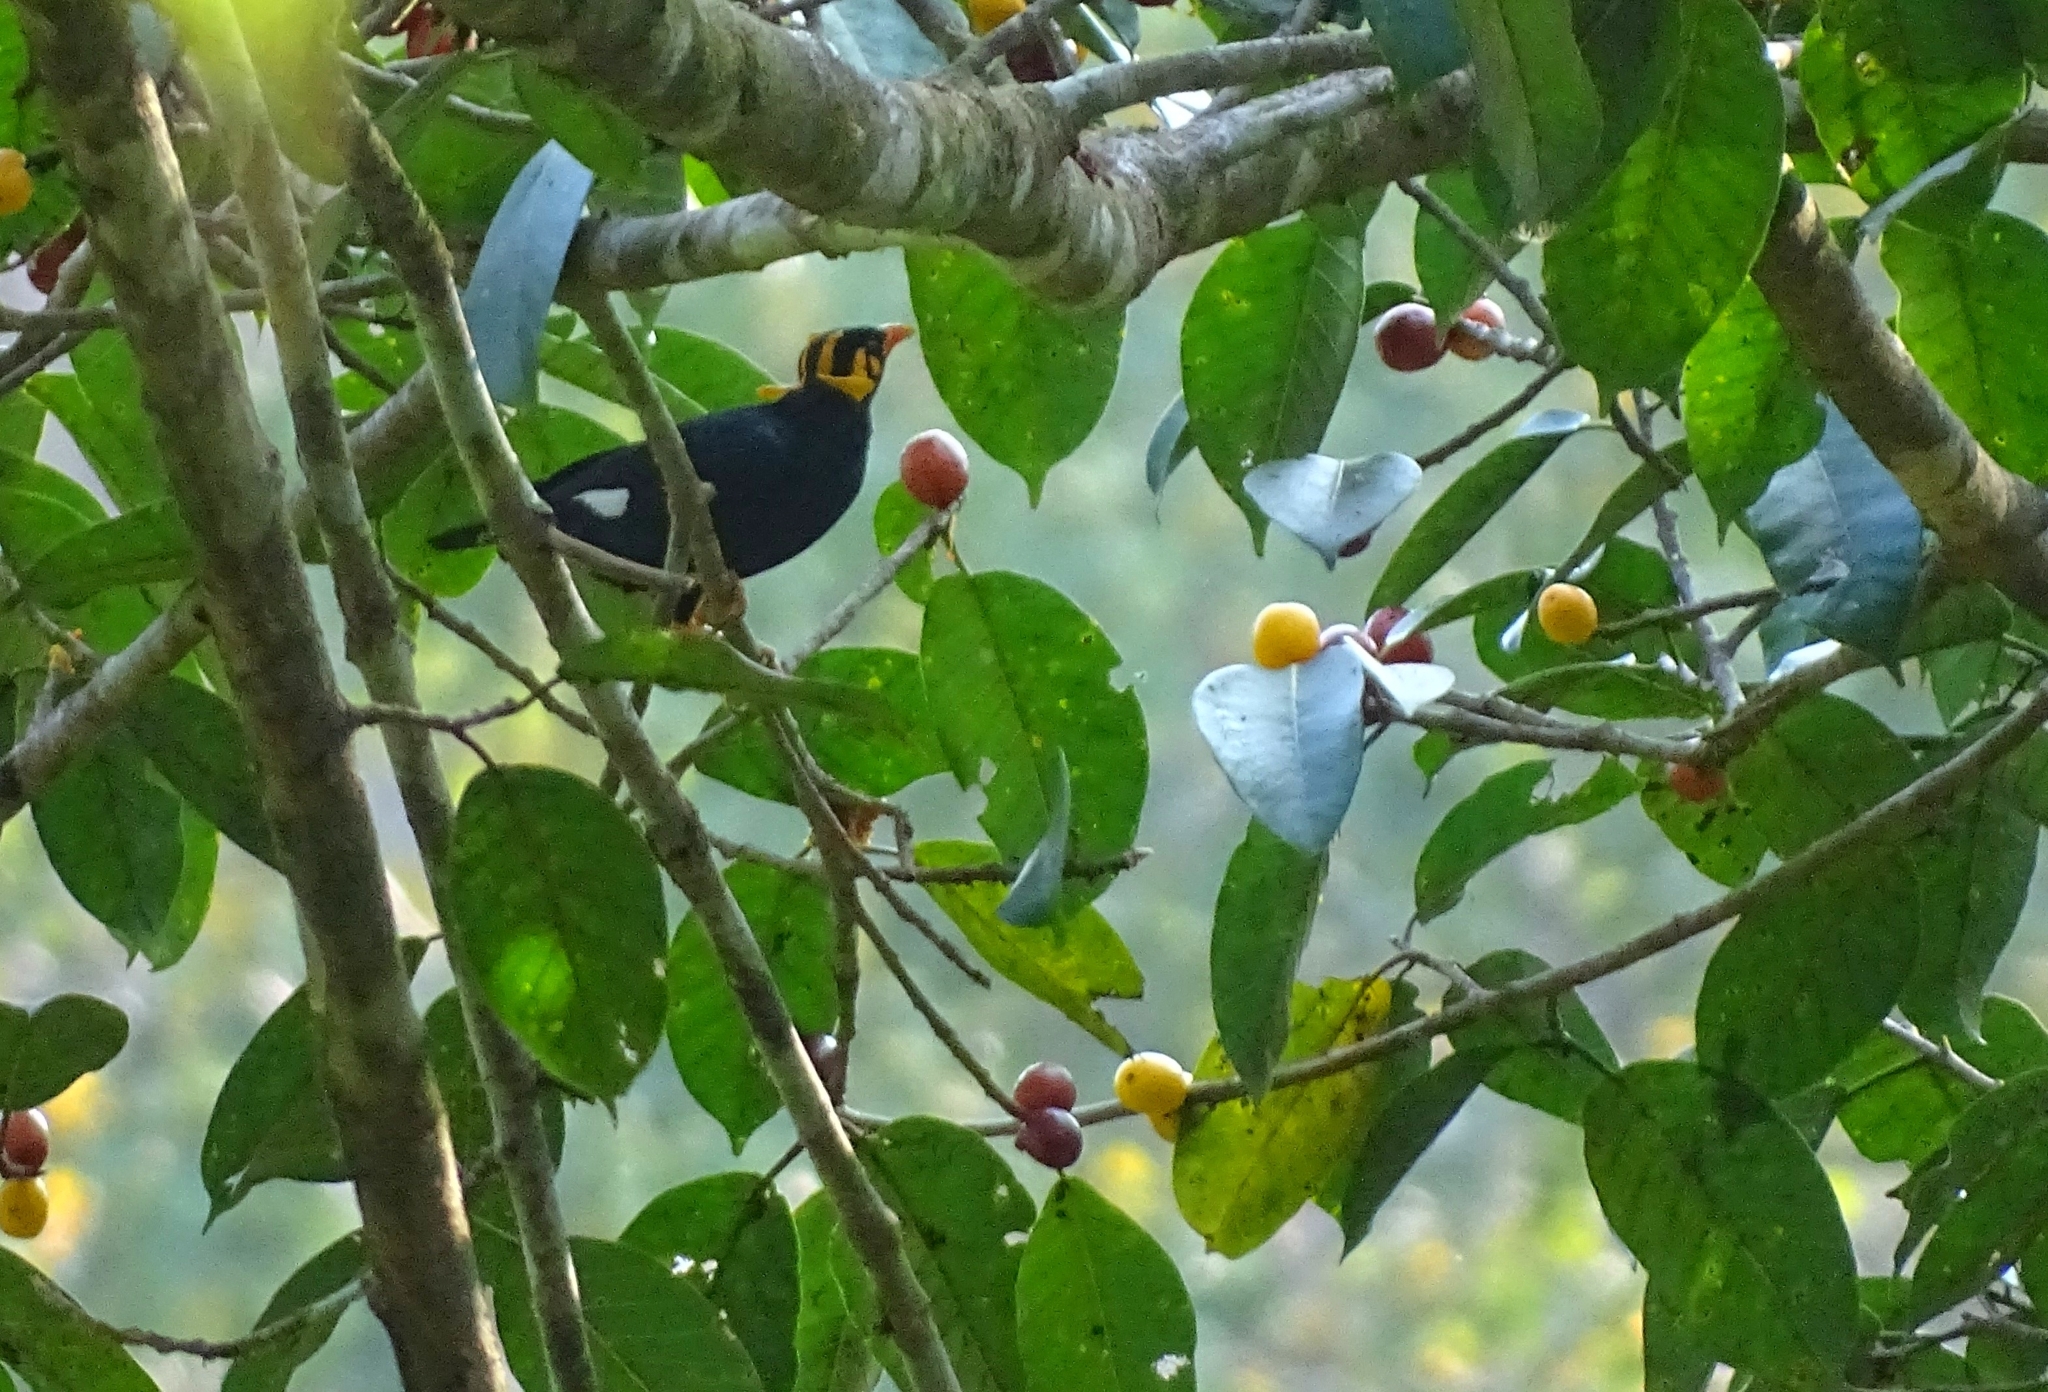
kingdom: Animalia
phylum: Chordata
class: Aves
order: Passeriformes
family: Sturnidae
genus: Gracula
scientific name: Gracula indica
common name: Southern hill myna
